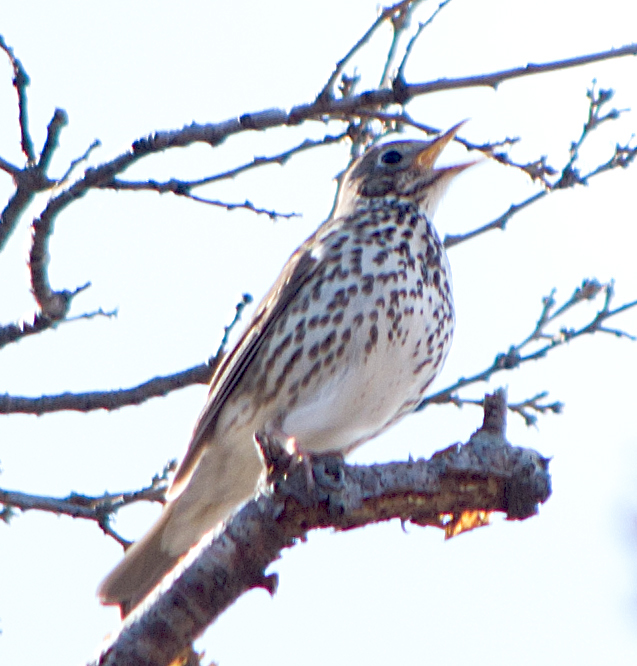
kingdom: Animalia
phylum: Chordata
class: Aves
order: Passeriformes
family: Turdidae
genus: Turdus
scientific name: Turdus philomelos
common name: Song thrush
